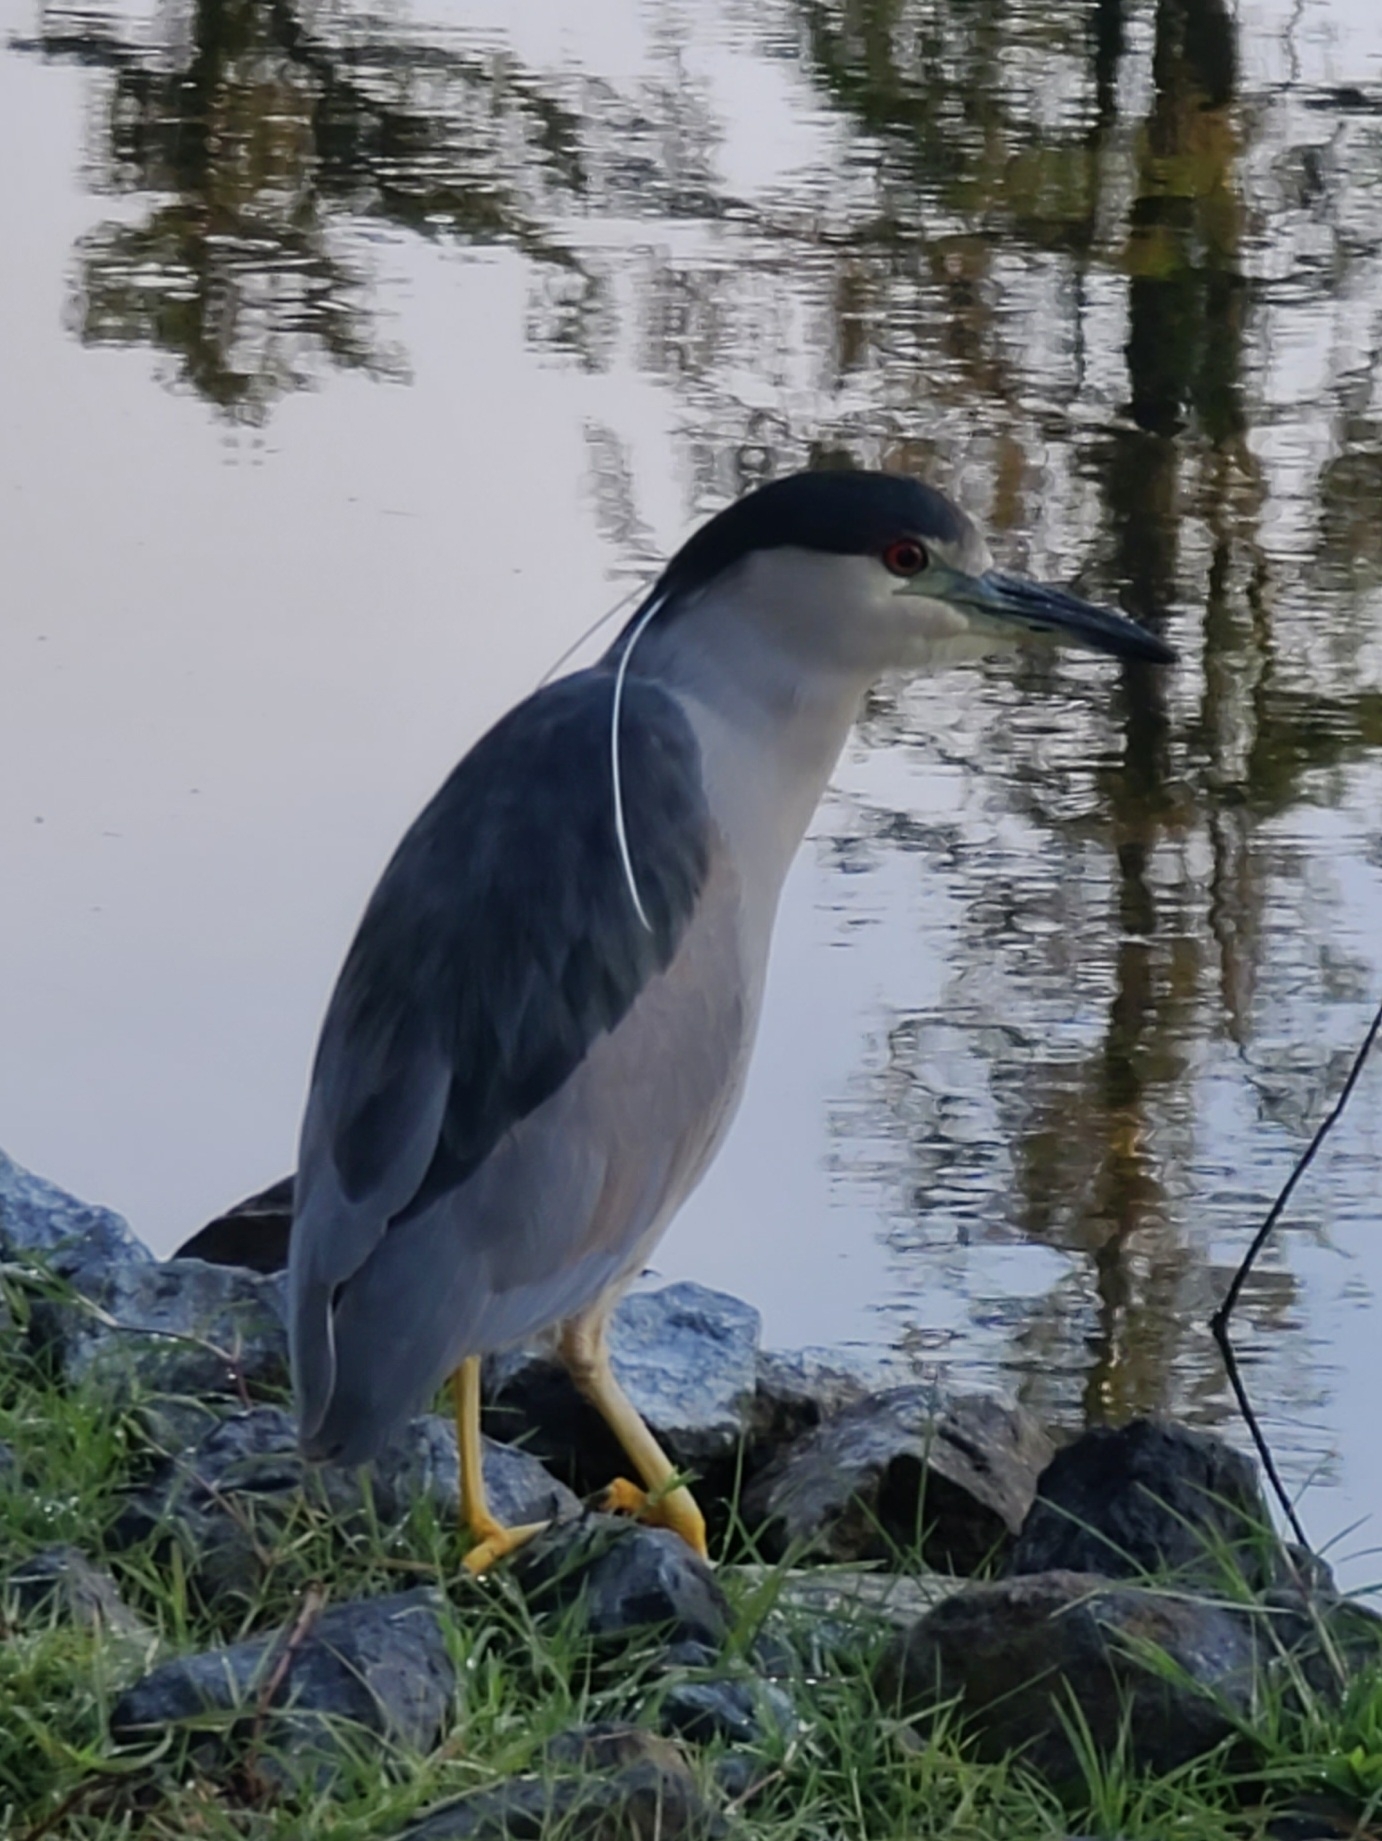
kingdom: Animalia
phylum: Chordata
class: Aves
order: Pelecaniformes
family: Ardeidae
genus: Nycticorax
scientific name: Nycticorax nycticorax
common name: Black-crowned night heron
